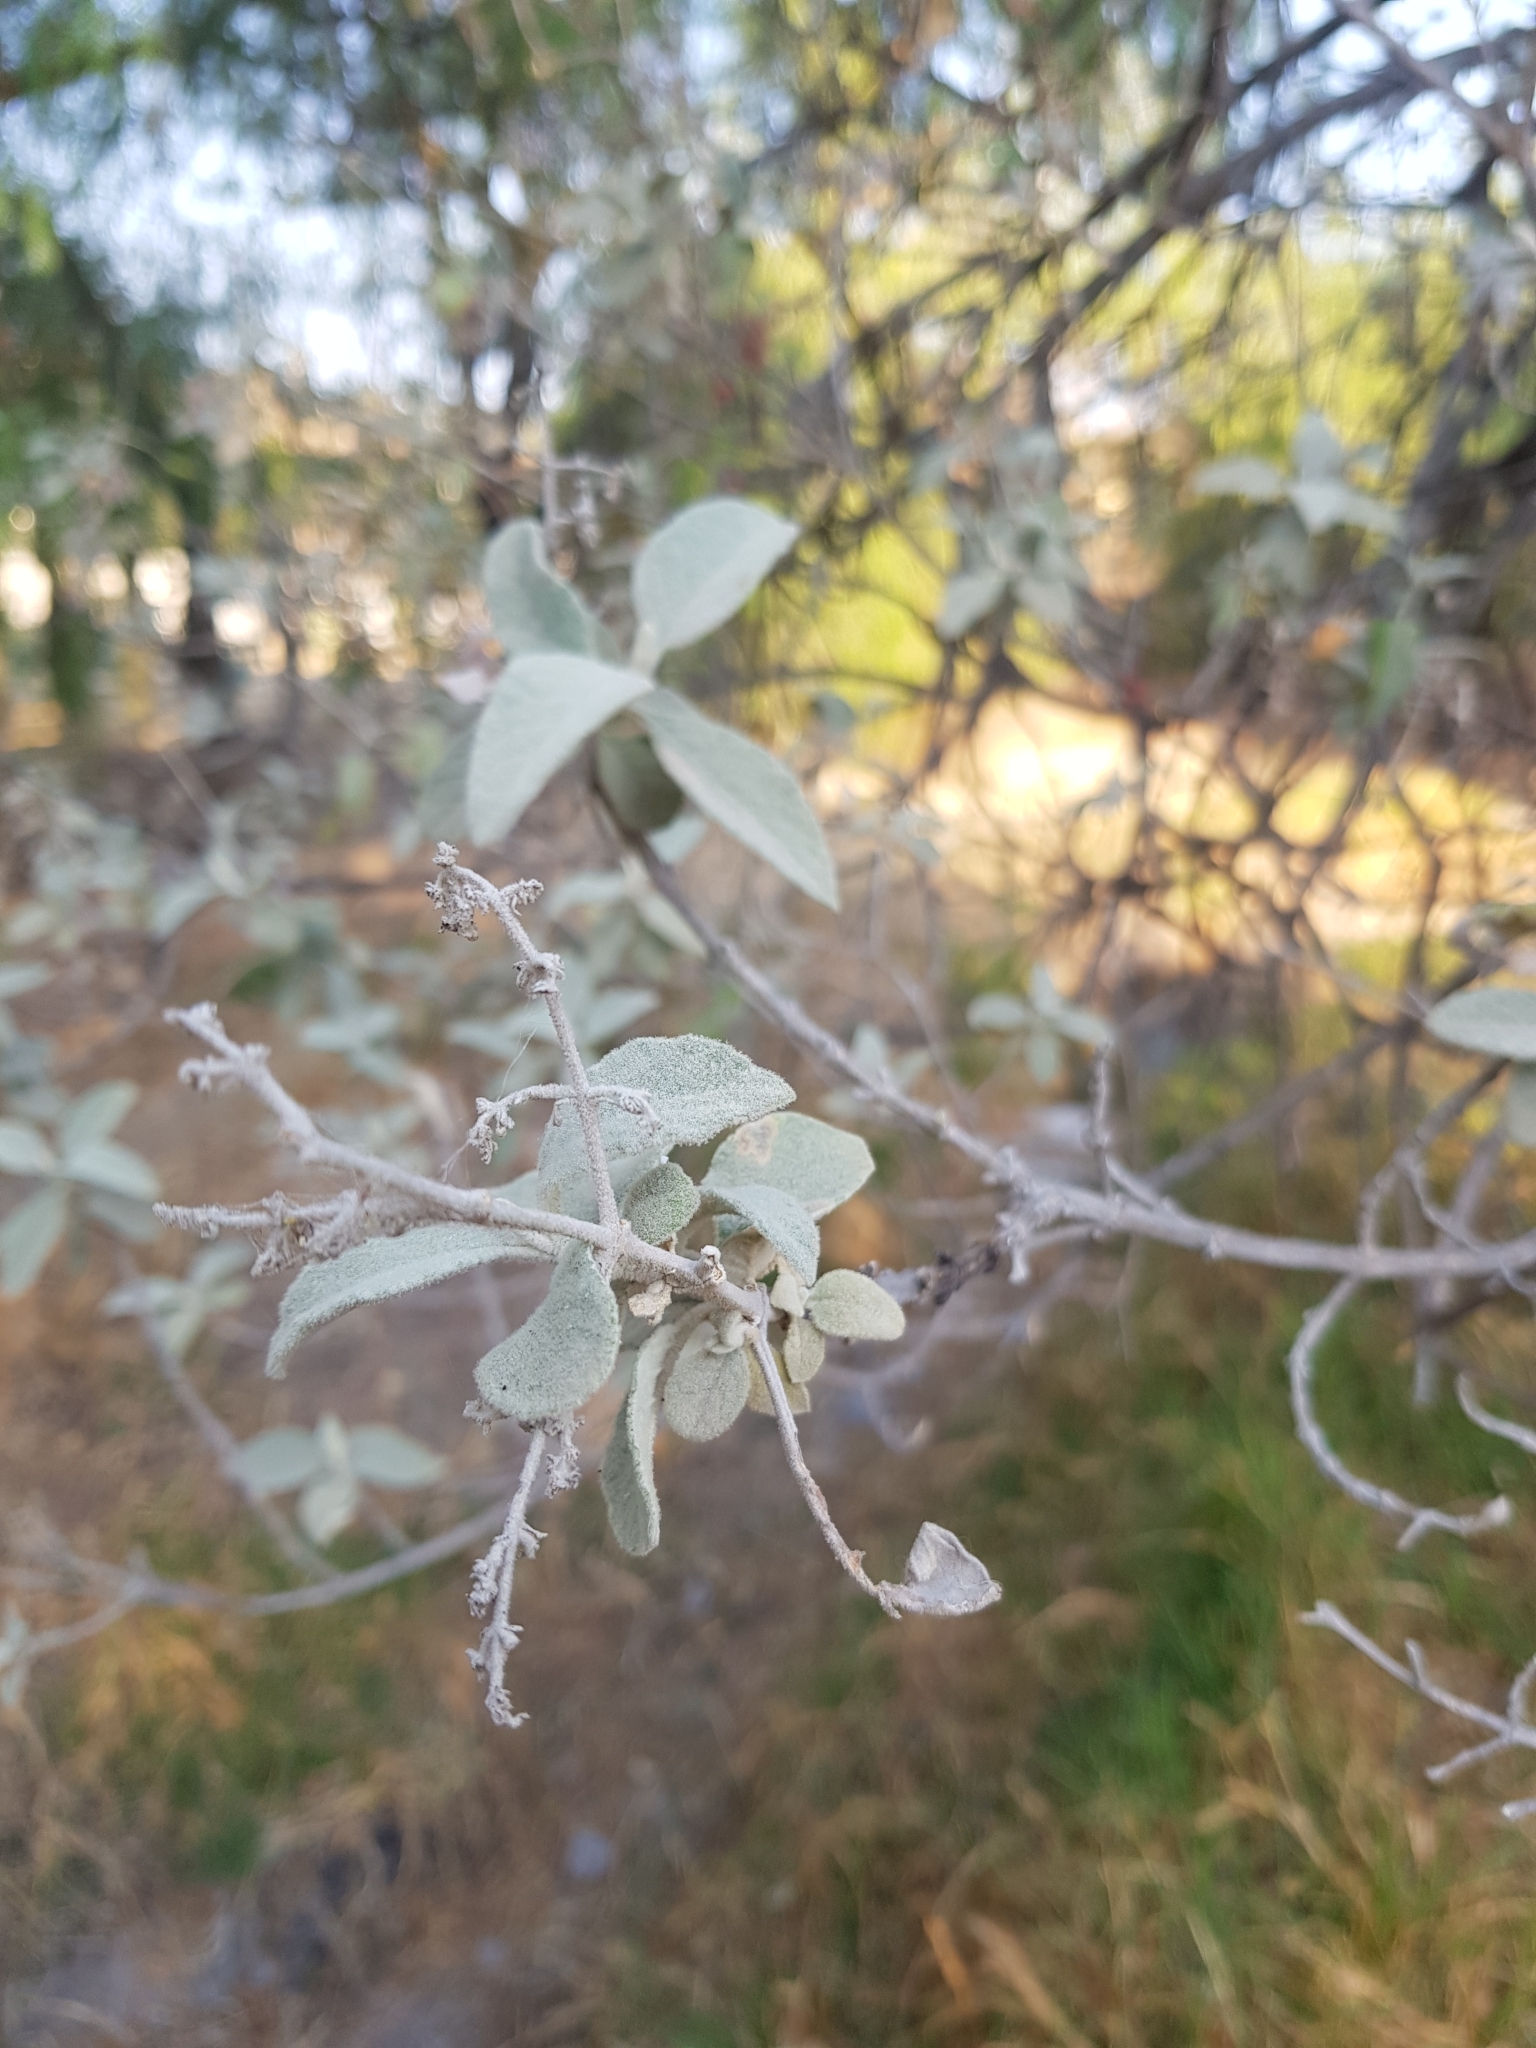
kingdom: Plantae
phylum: Tracheophyta
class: Magnoliopsida
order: Lamiales
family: Scrophulariaceae
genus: Buddleja
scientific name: Buddleja cordata
